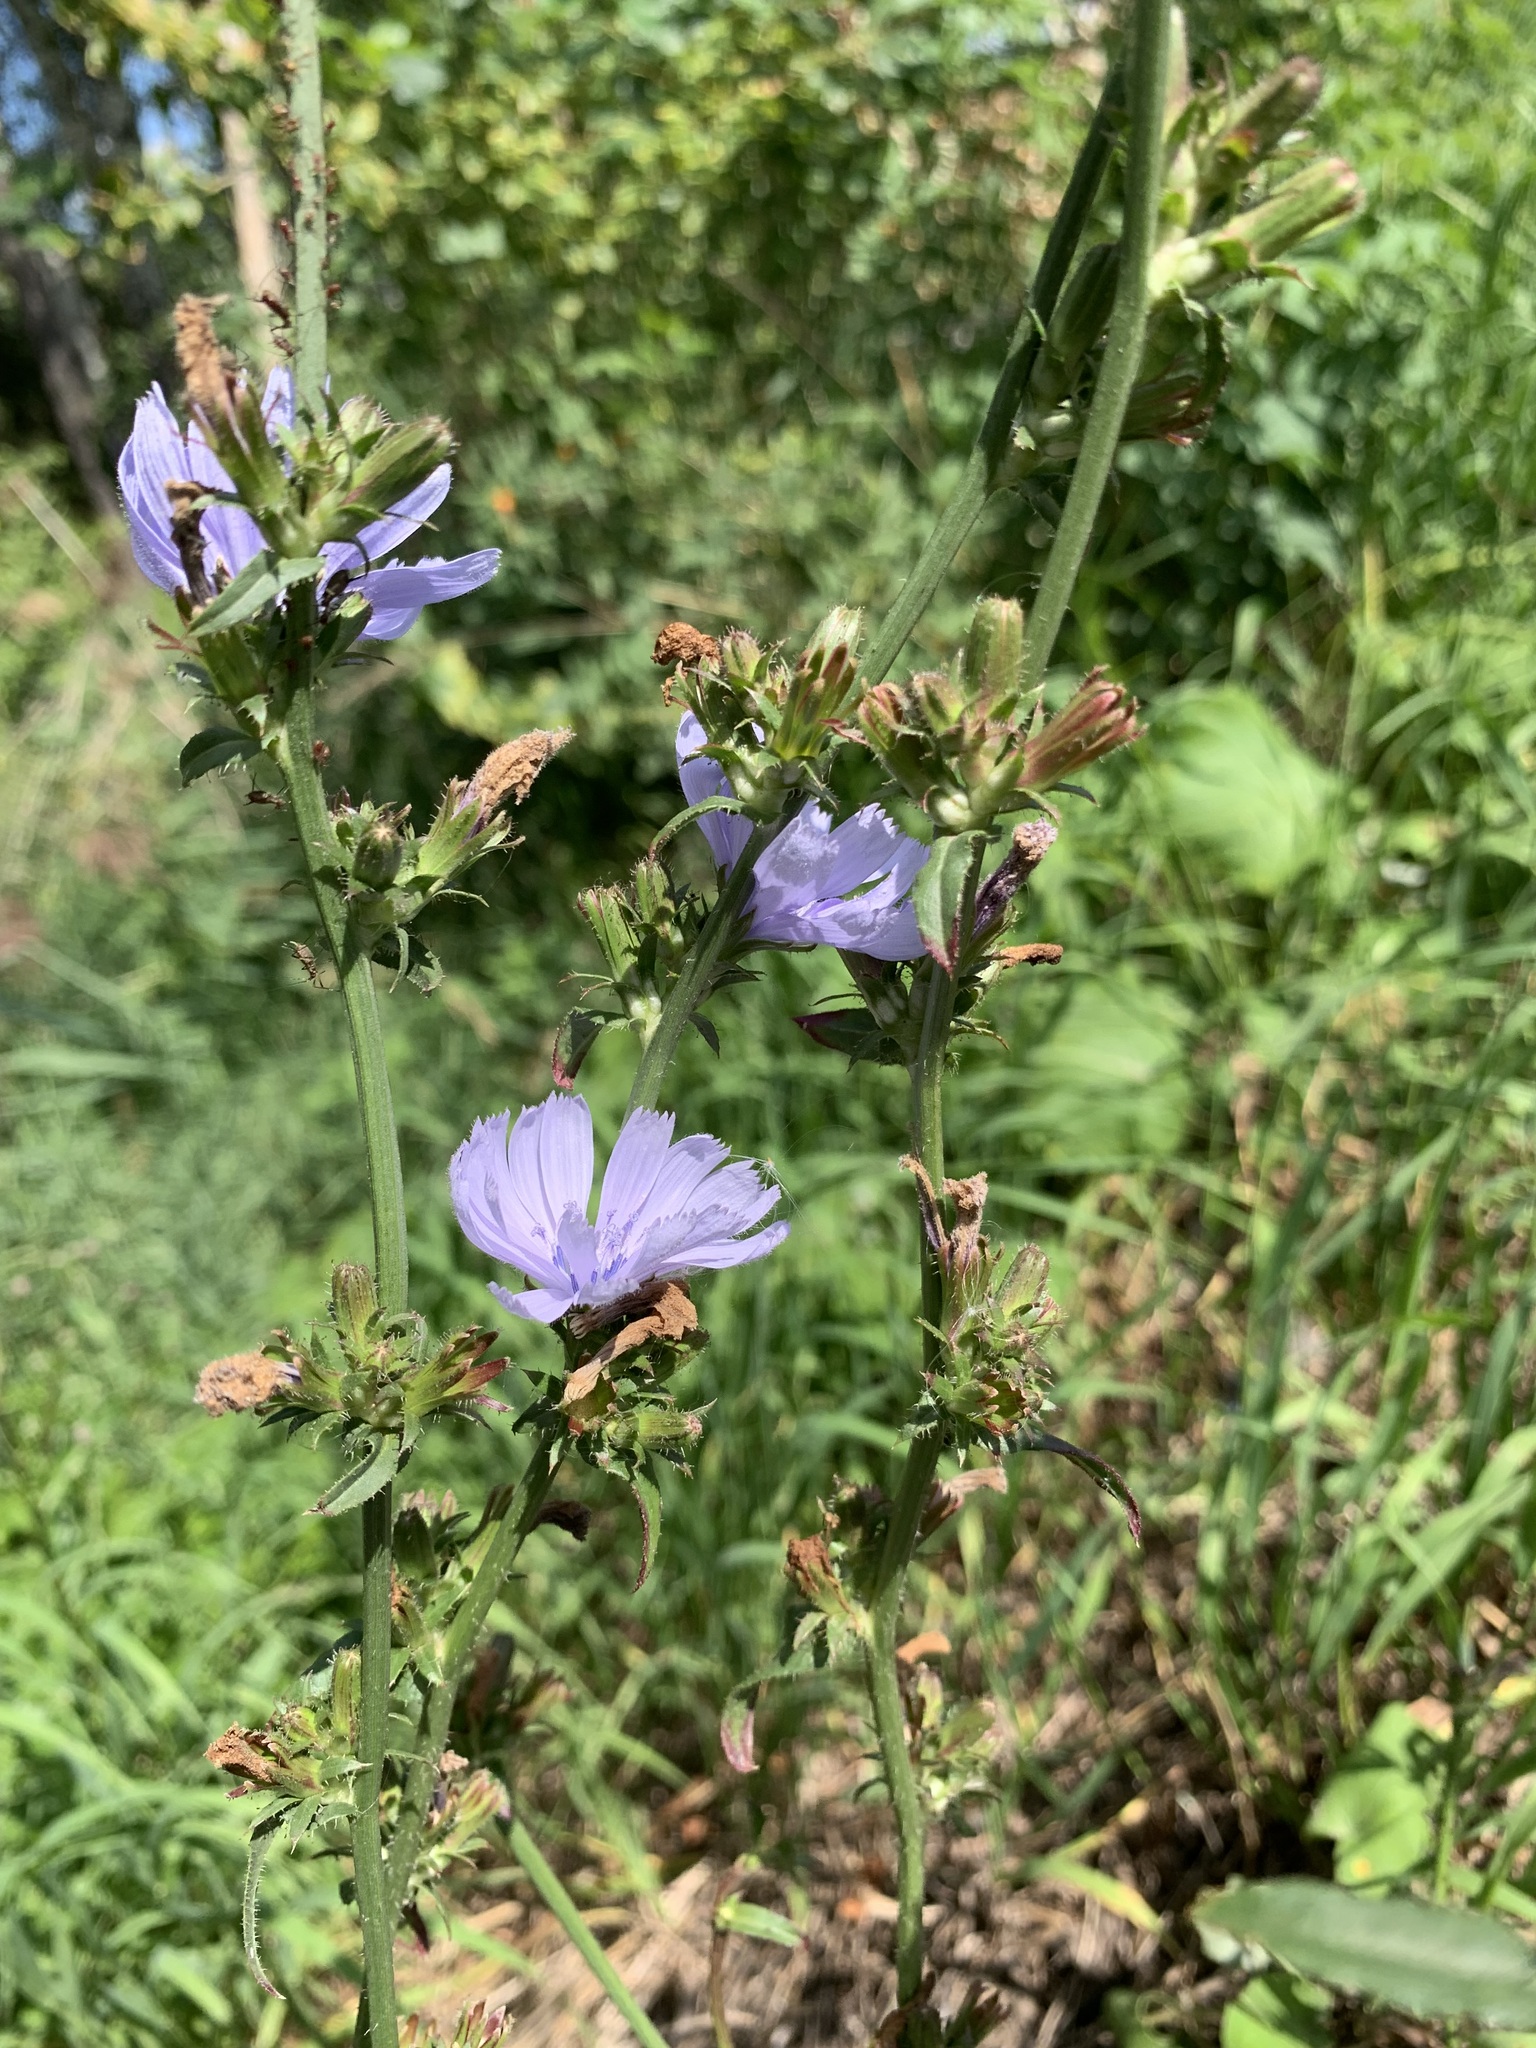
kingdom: Plantae
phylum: Tracheophyta
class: Magnoliopsida
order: Asterales
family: Asteraceae
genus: Cichorium
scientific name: Cichorium intybus
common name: Chicory
